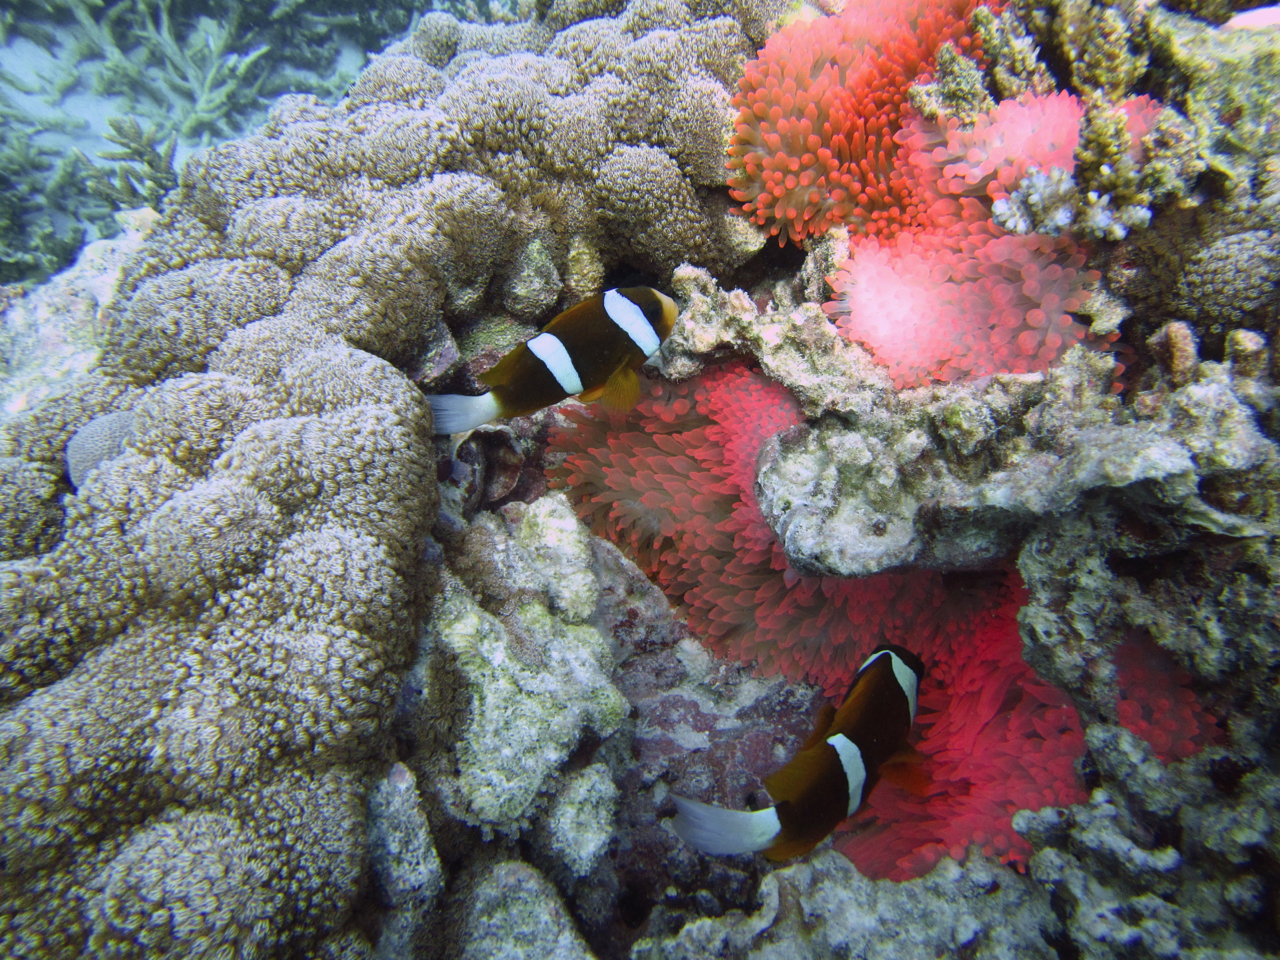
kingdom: Animalia
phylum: Chordata
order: Perciformes
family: Pomacentridae
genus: Amphiprion
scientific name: Amphiprion akindynos
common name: Barrier reef anemonefish
